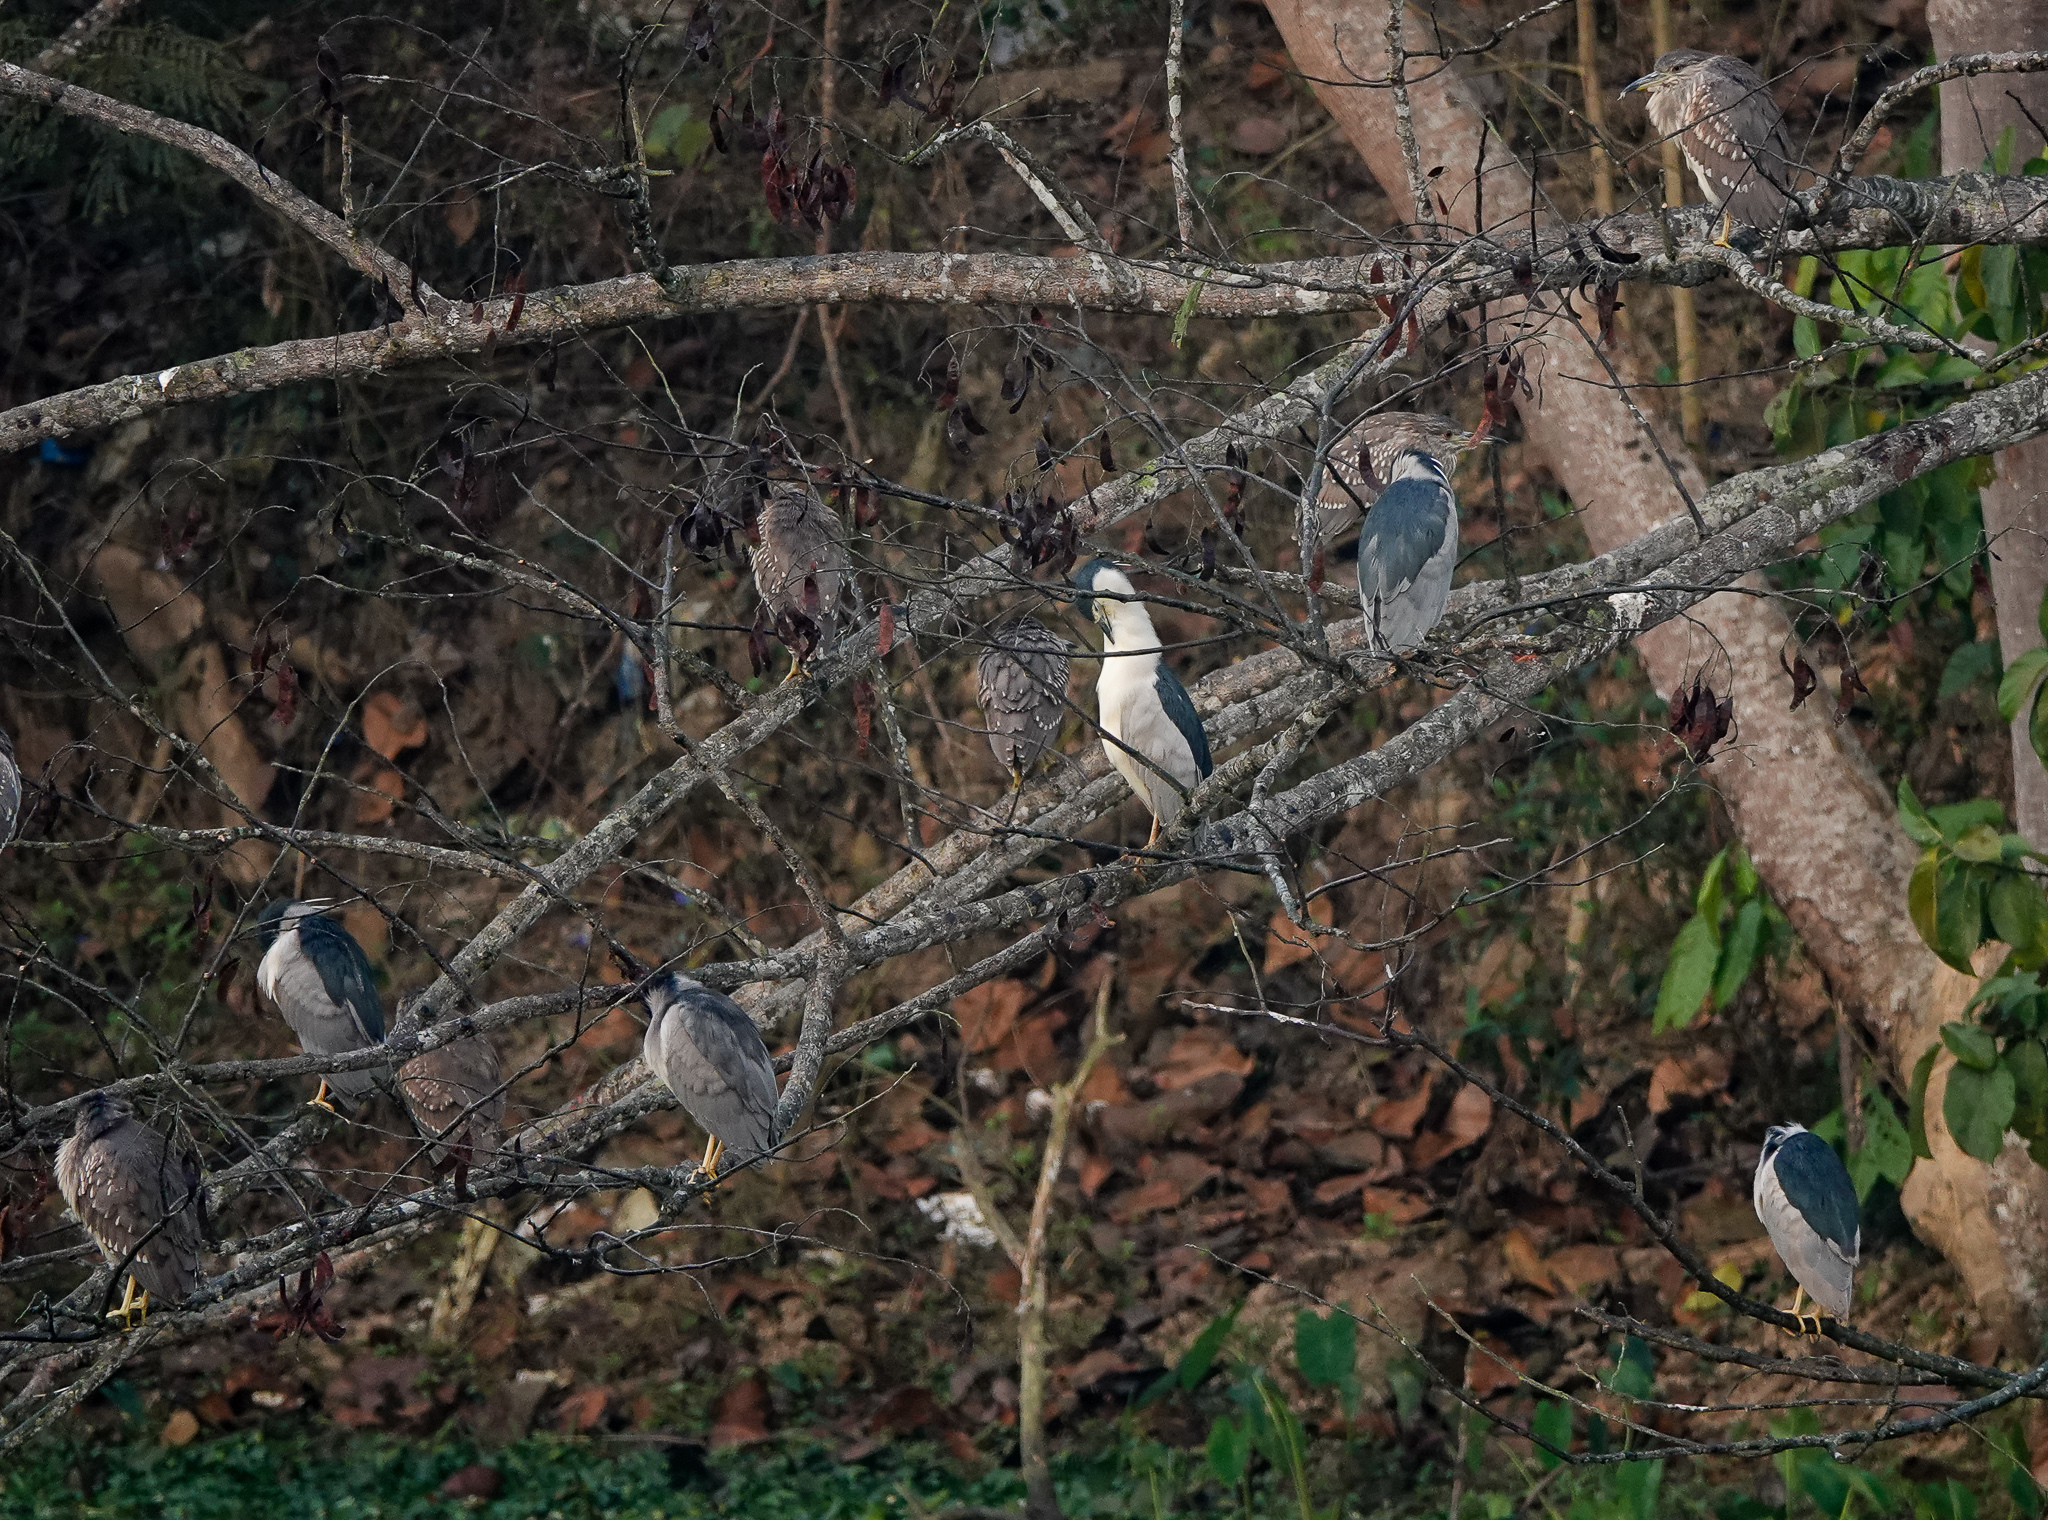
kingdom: Animalia
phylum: Chordata
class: Aves
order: Pelecaniformes
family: Ardeidae
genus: Nycticorax
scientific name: Nycticorax nycticorax
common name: Black-crowned night heron
